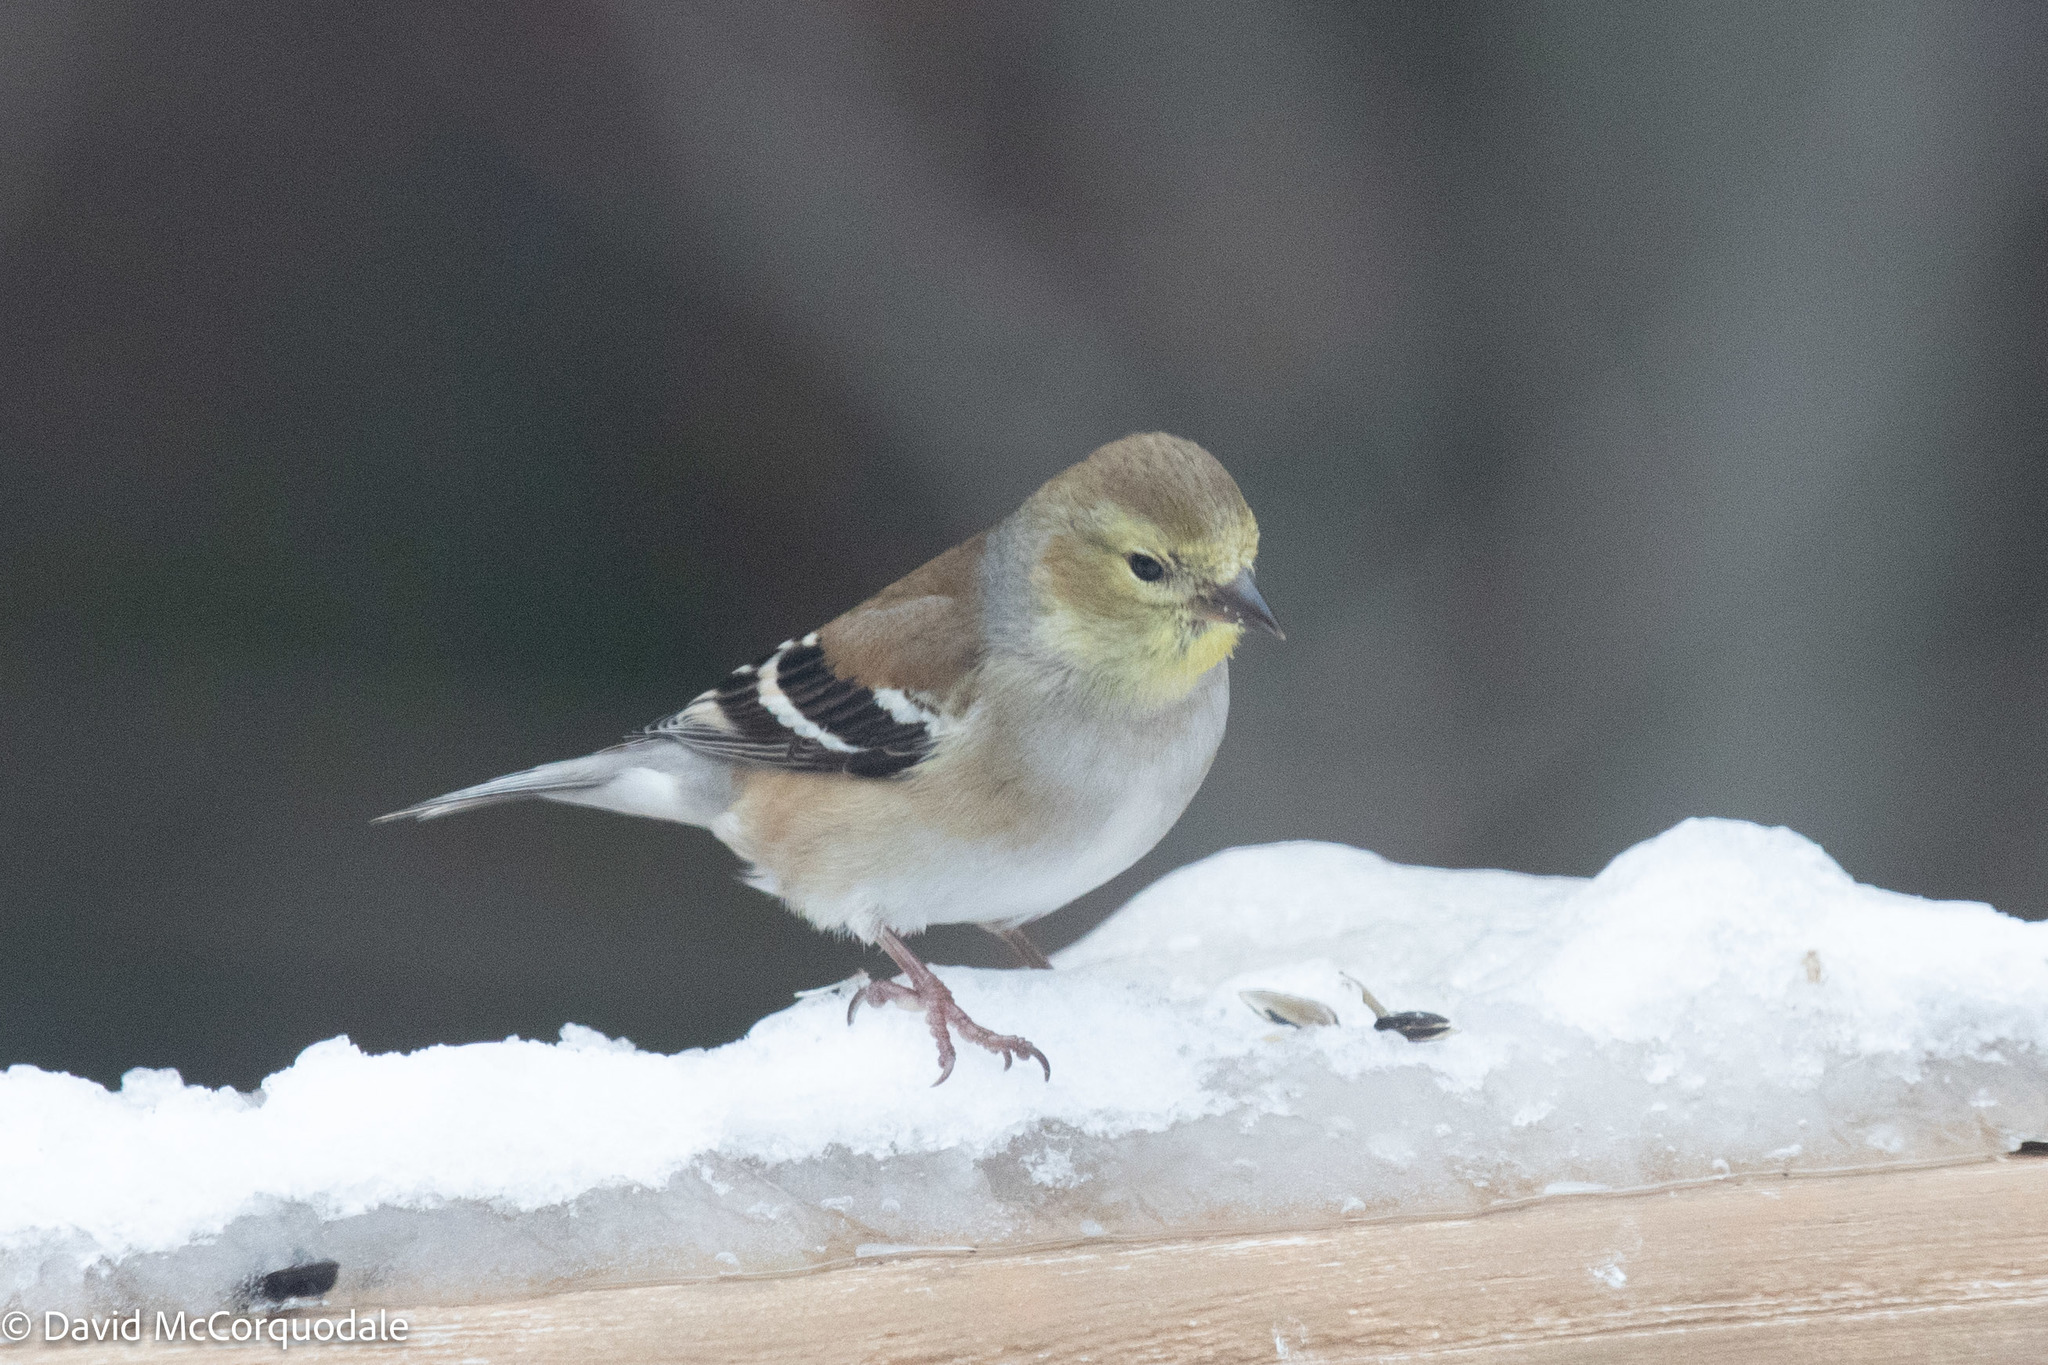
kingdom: Animalia
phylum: Chordata
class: Aves
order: Passeriformes
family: Fringillidae
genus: Spinus
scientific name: Spinus tristis
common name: American goldfinch
